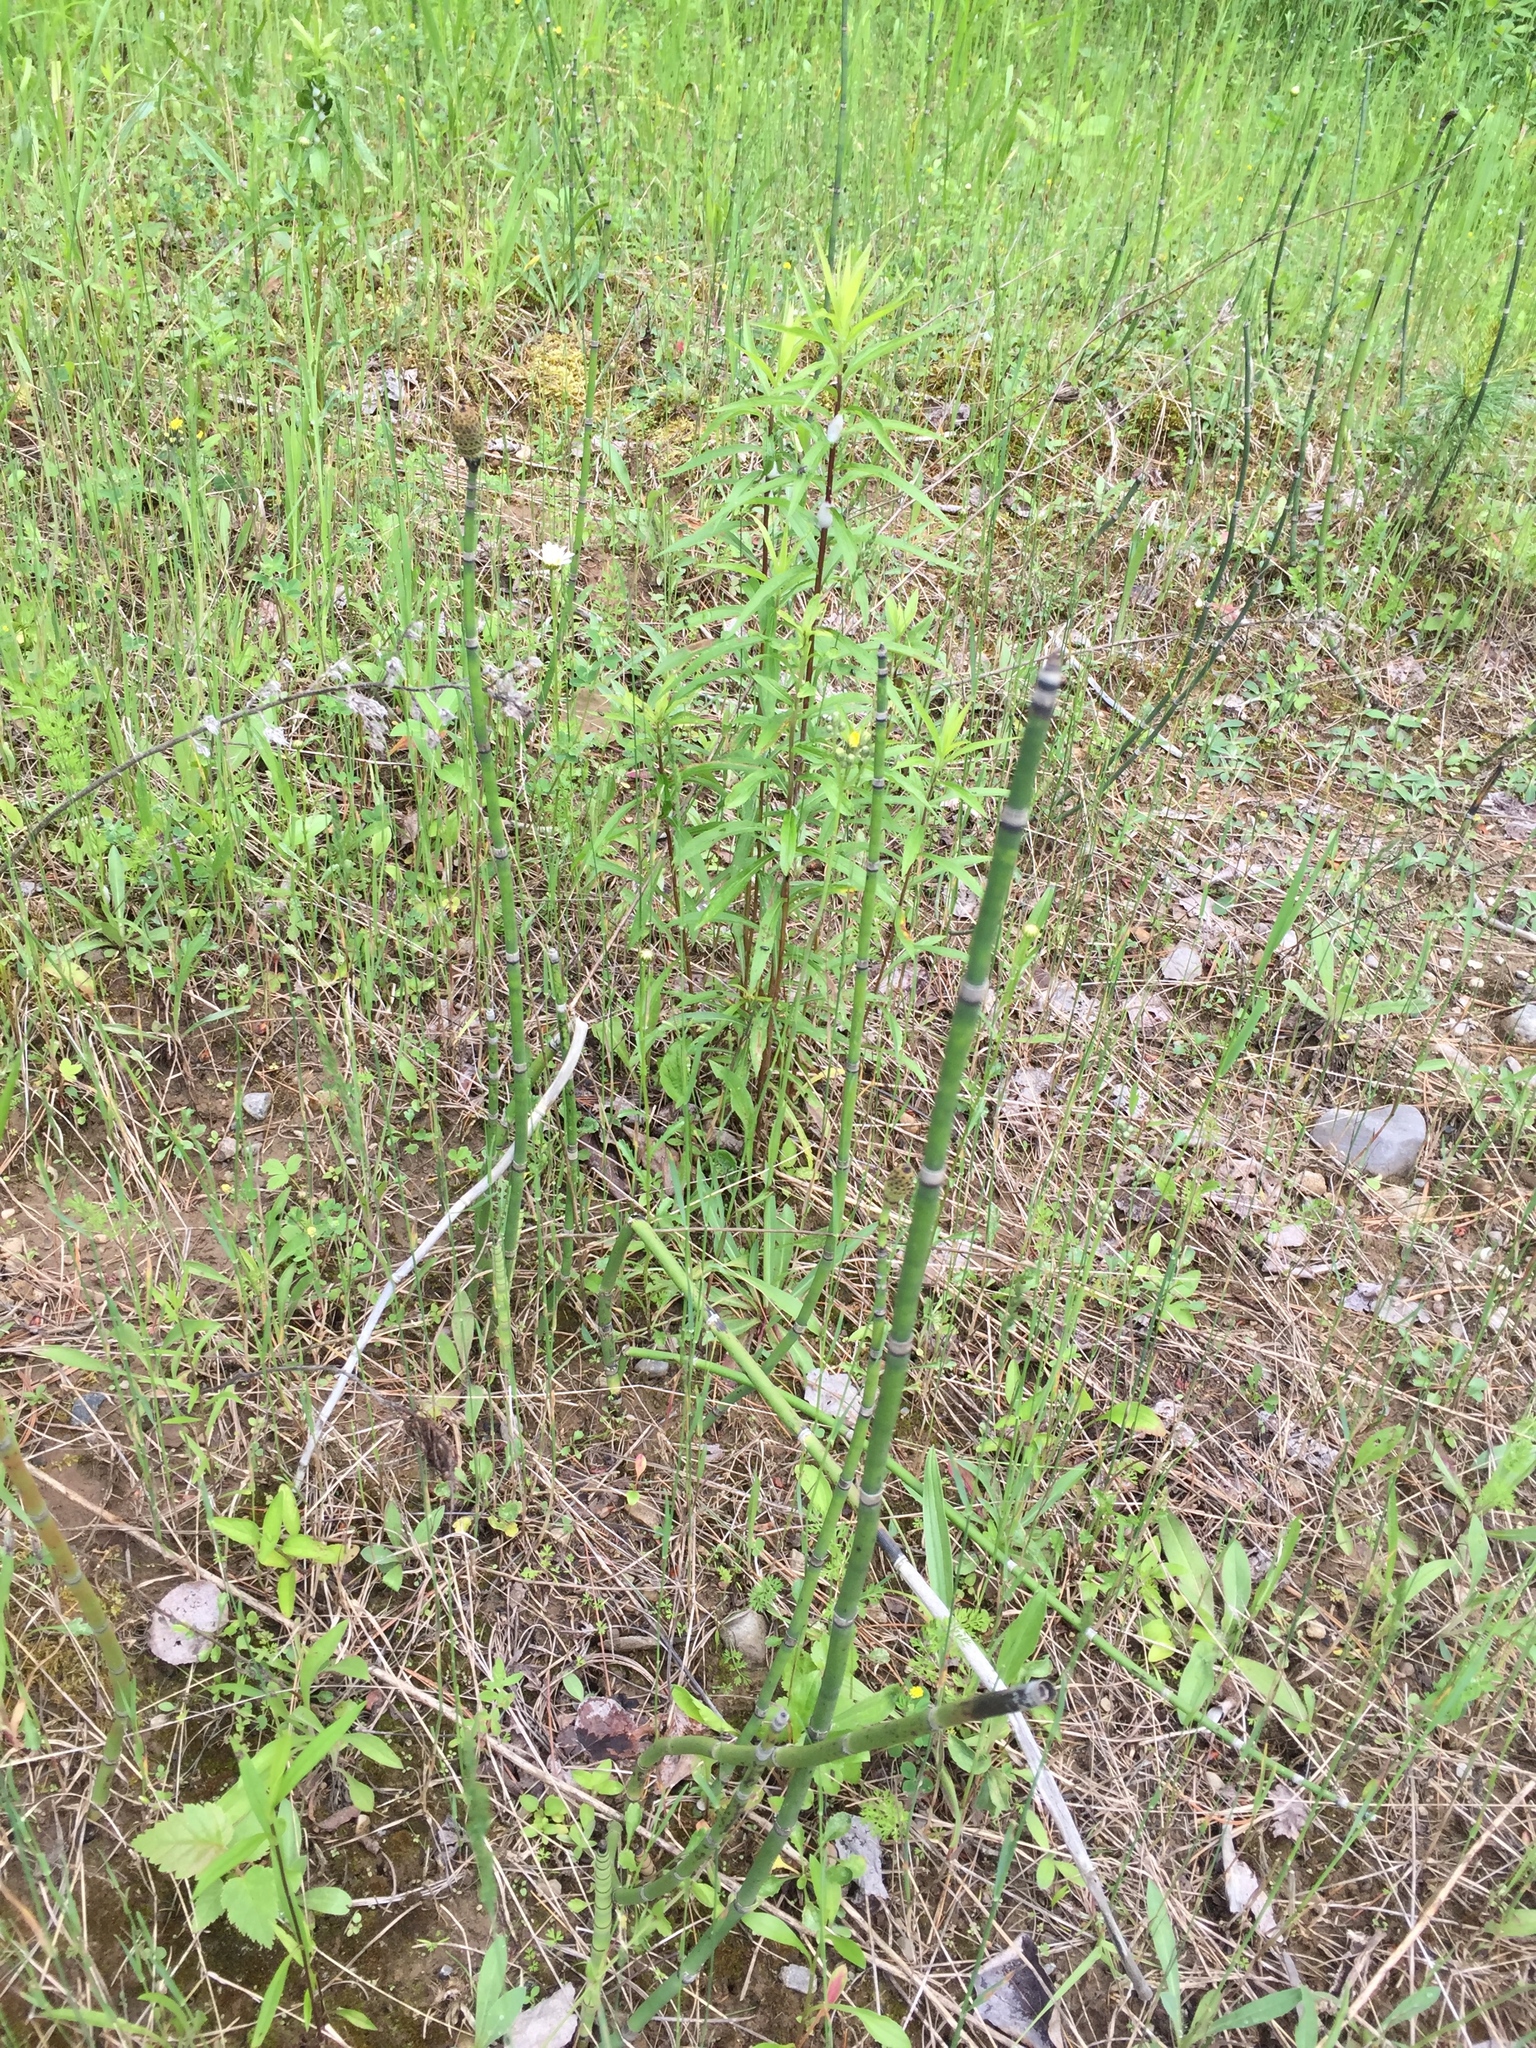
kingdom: Plantae
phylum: Tracheophyta
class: Polypodiopsida
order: Equisetales
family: Equisetaceae
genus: Equisetum
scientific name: Equisetum hyemale
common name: Rough horsetail
